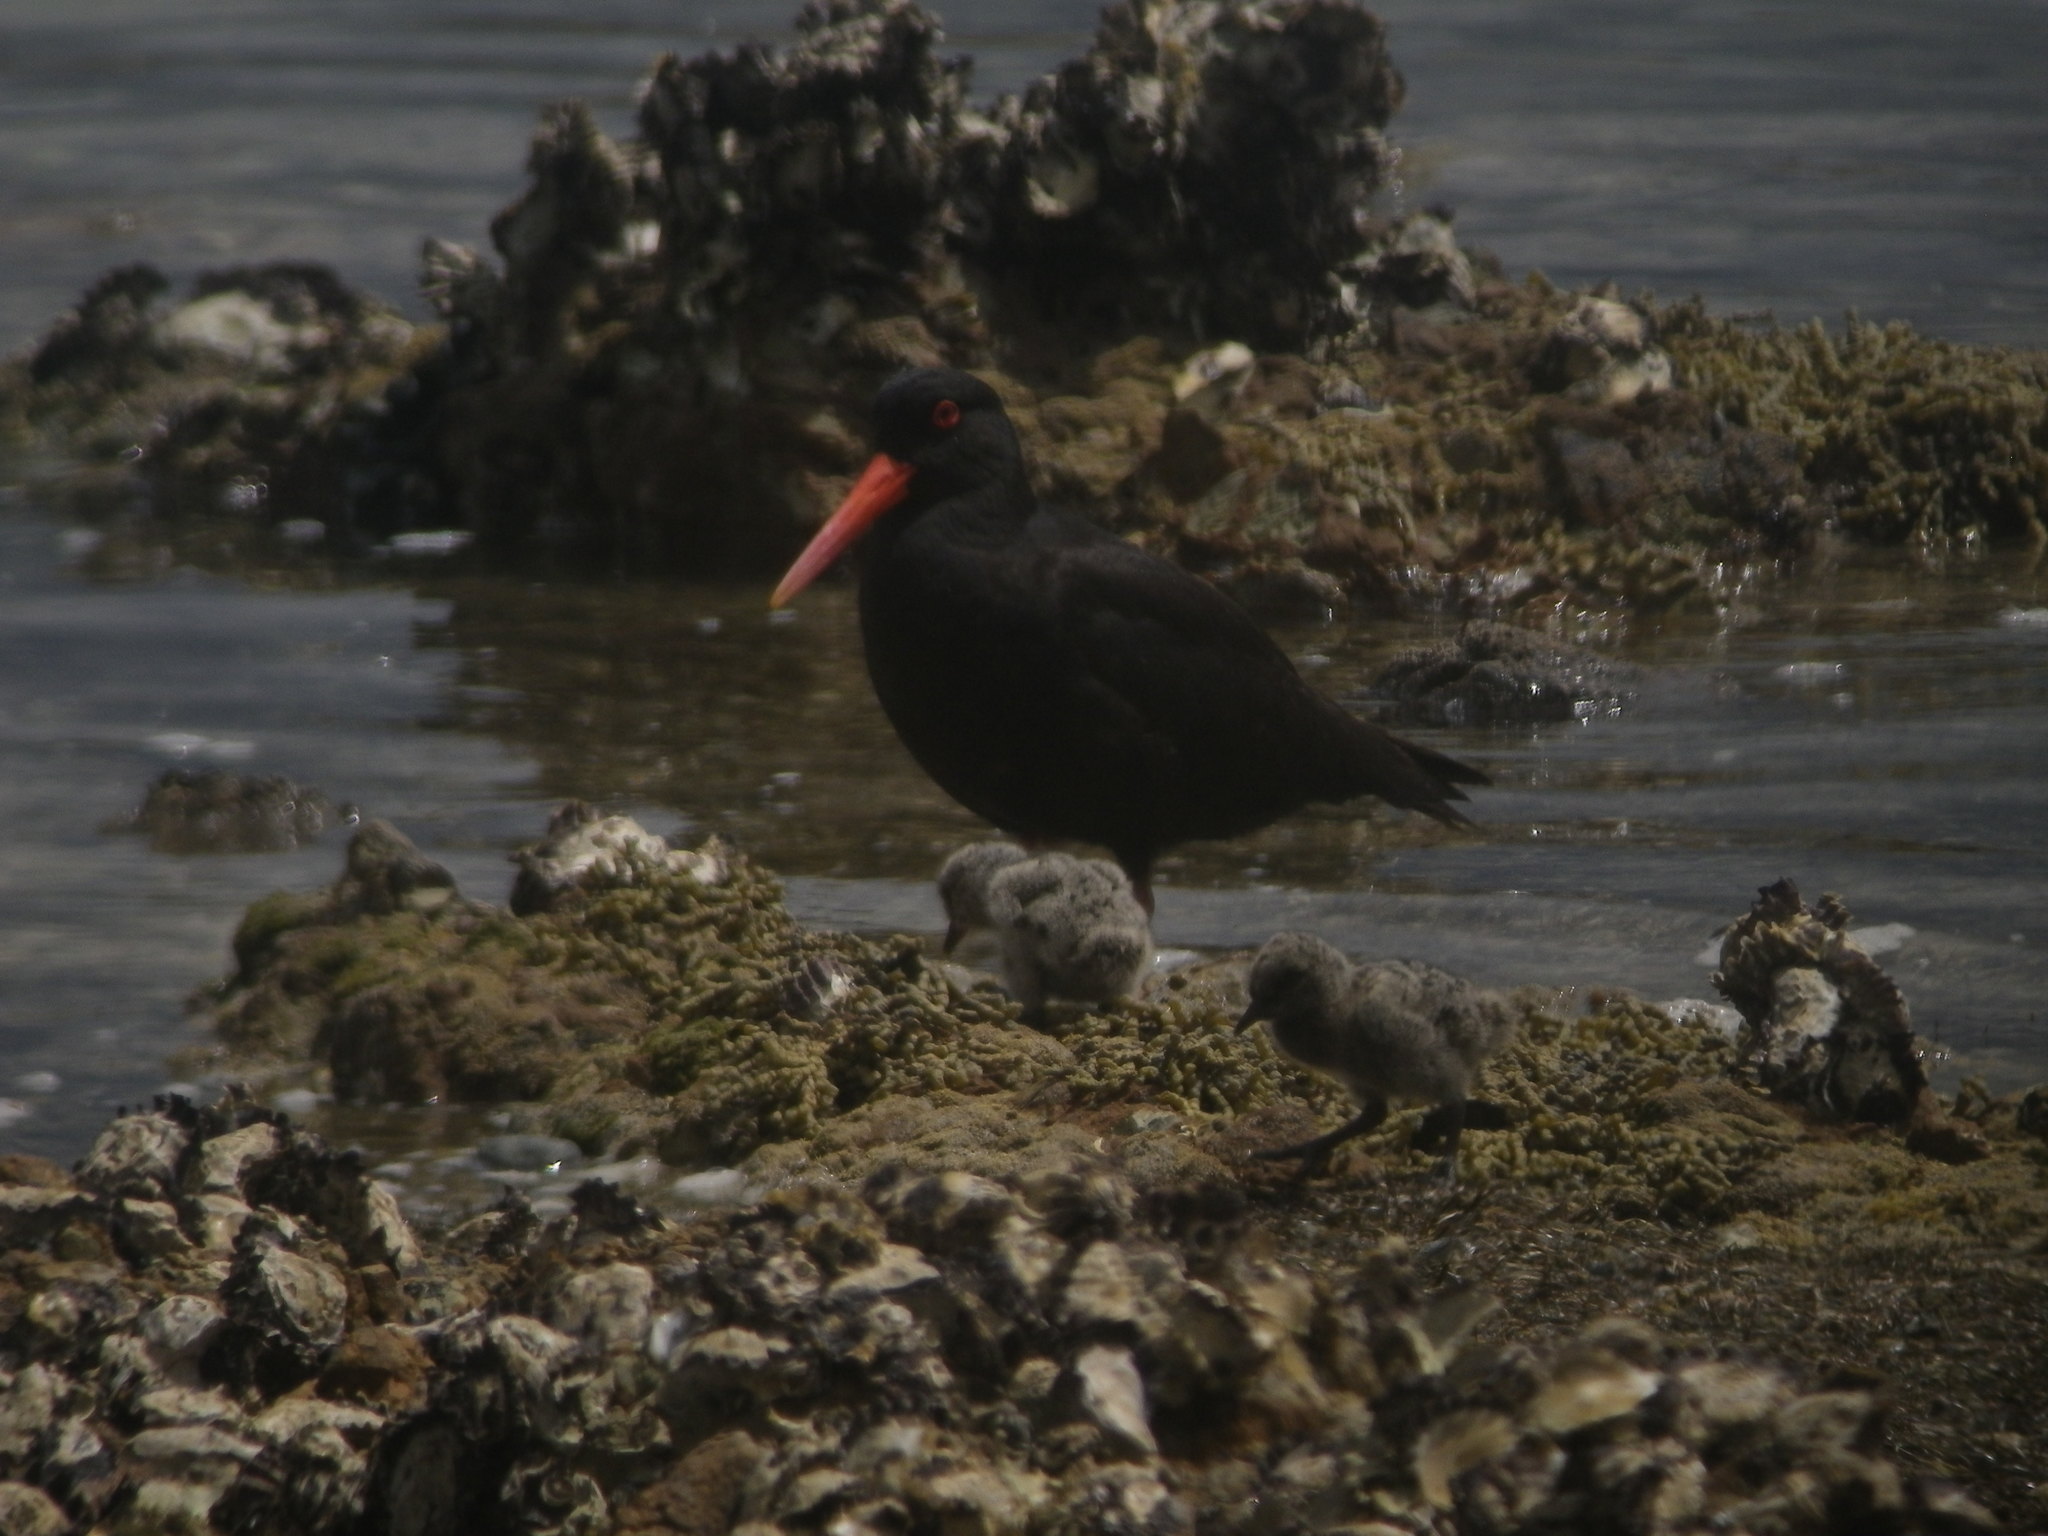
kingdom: Animalia
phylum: Chordata
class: Aves
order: Charadriiformes
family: Haematopodidae
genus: Haematopus
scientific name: Haematopus unicolor
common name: Variable oystercatcher
